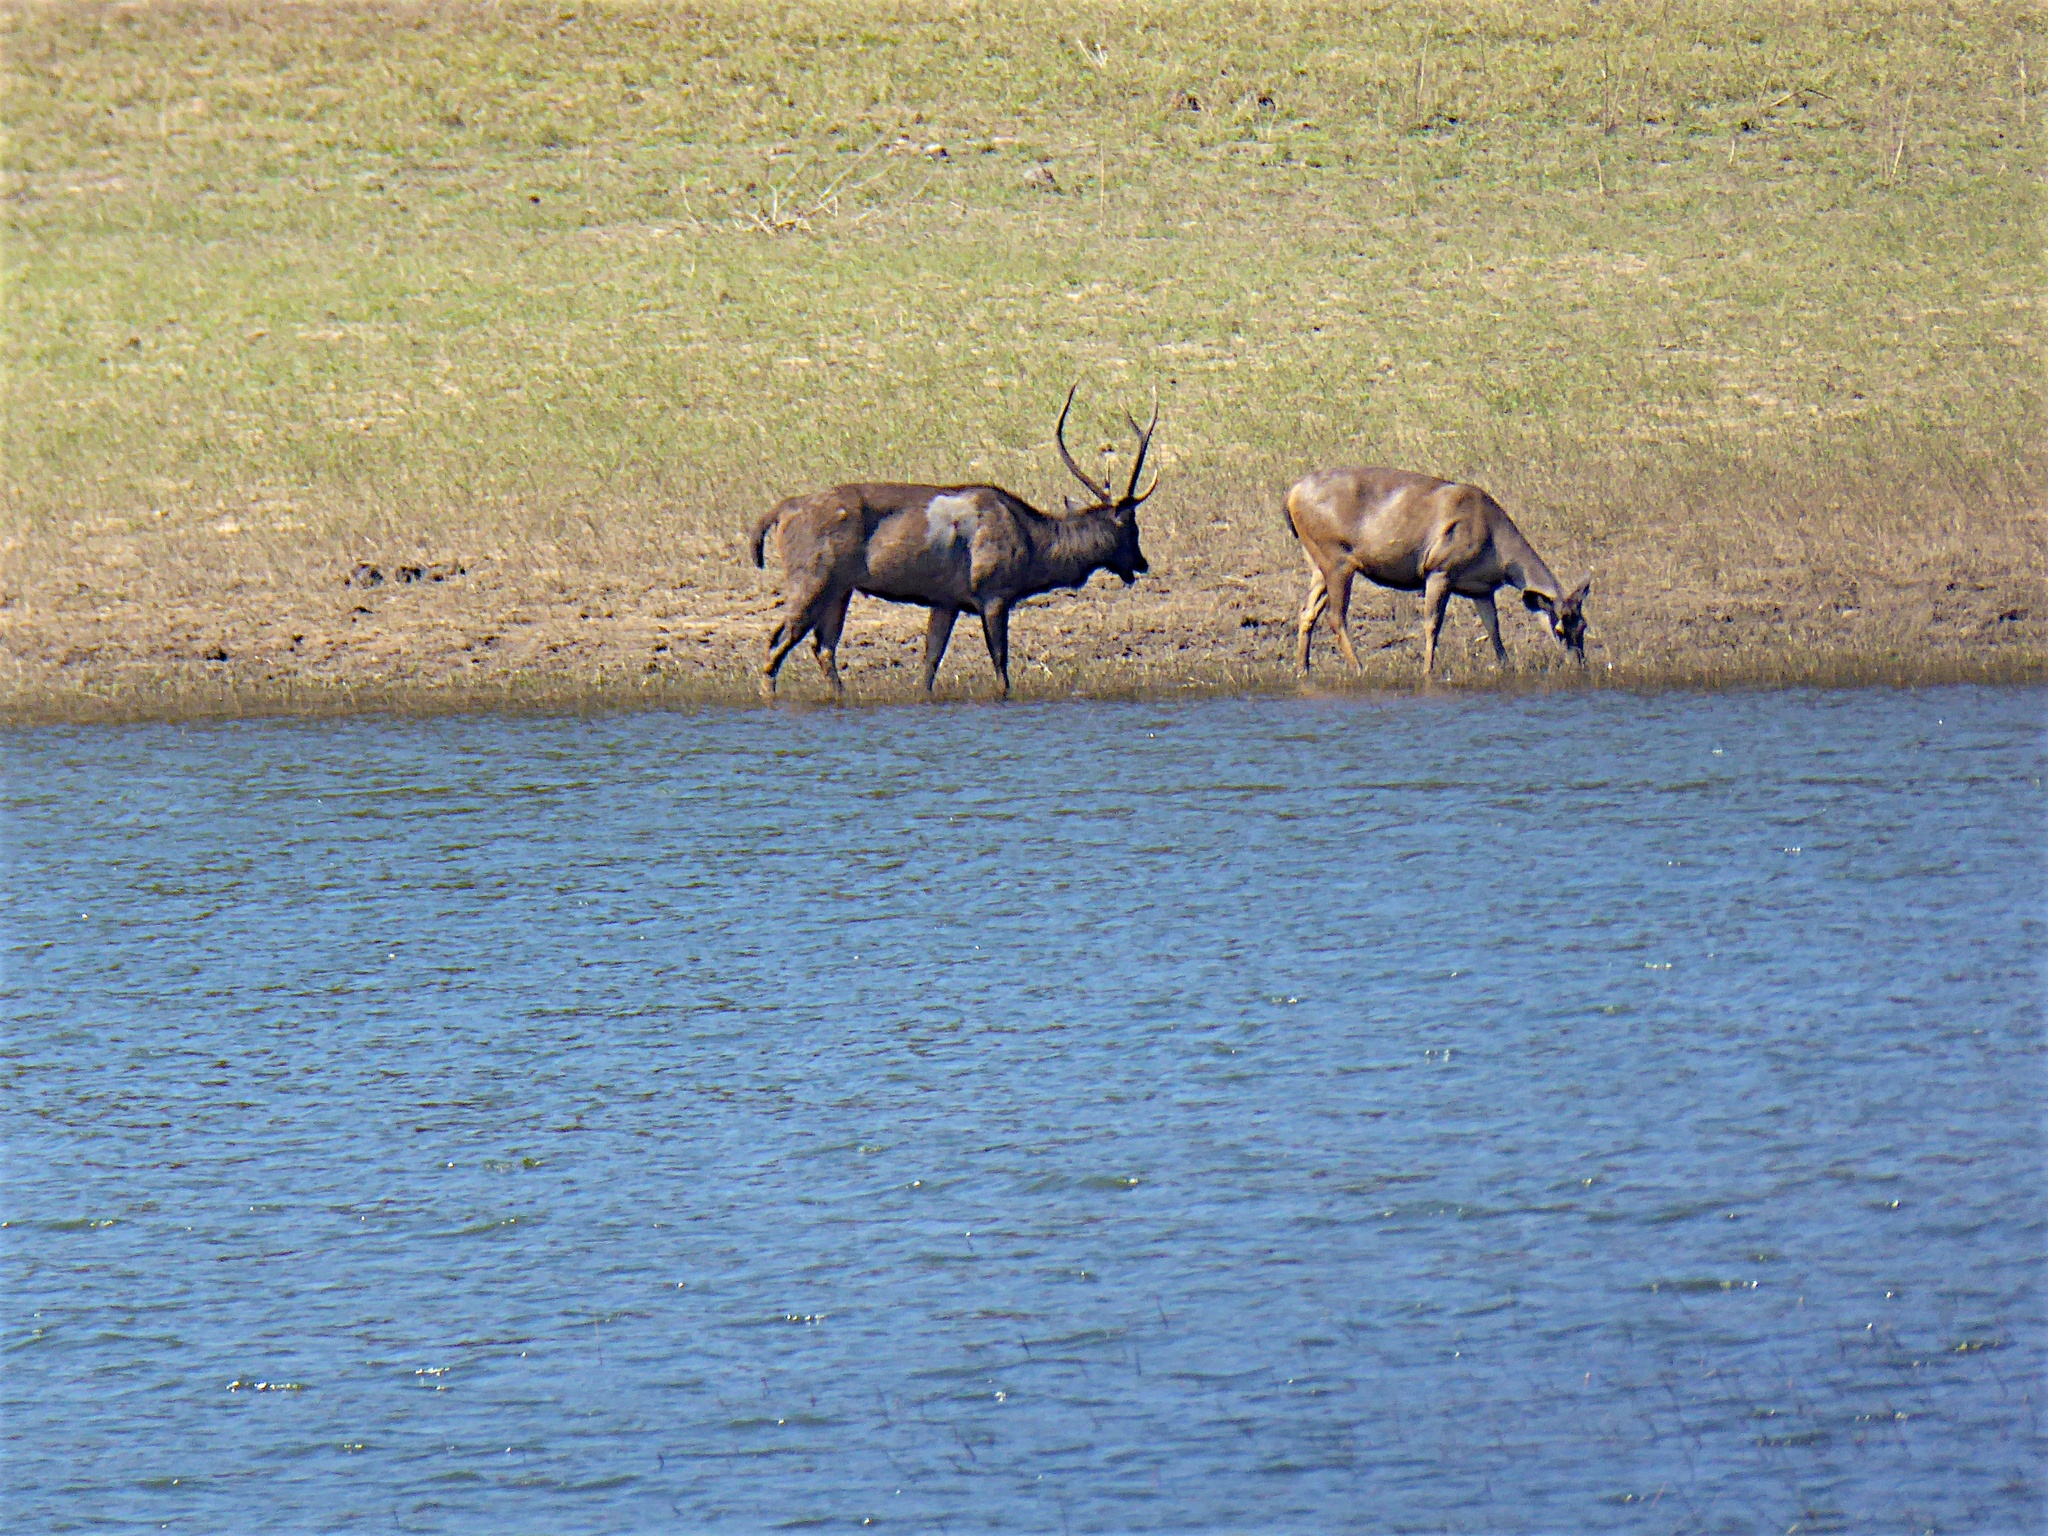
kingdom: Animalia
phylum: Chordata
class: Mammalia
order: Artiodactyla
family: Cervidae
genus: Rusa
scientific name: Rusa unicolor
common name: Sambar
